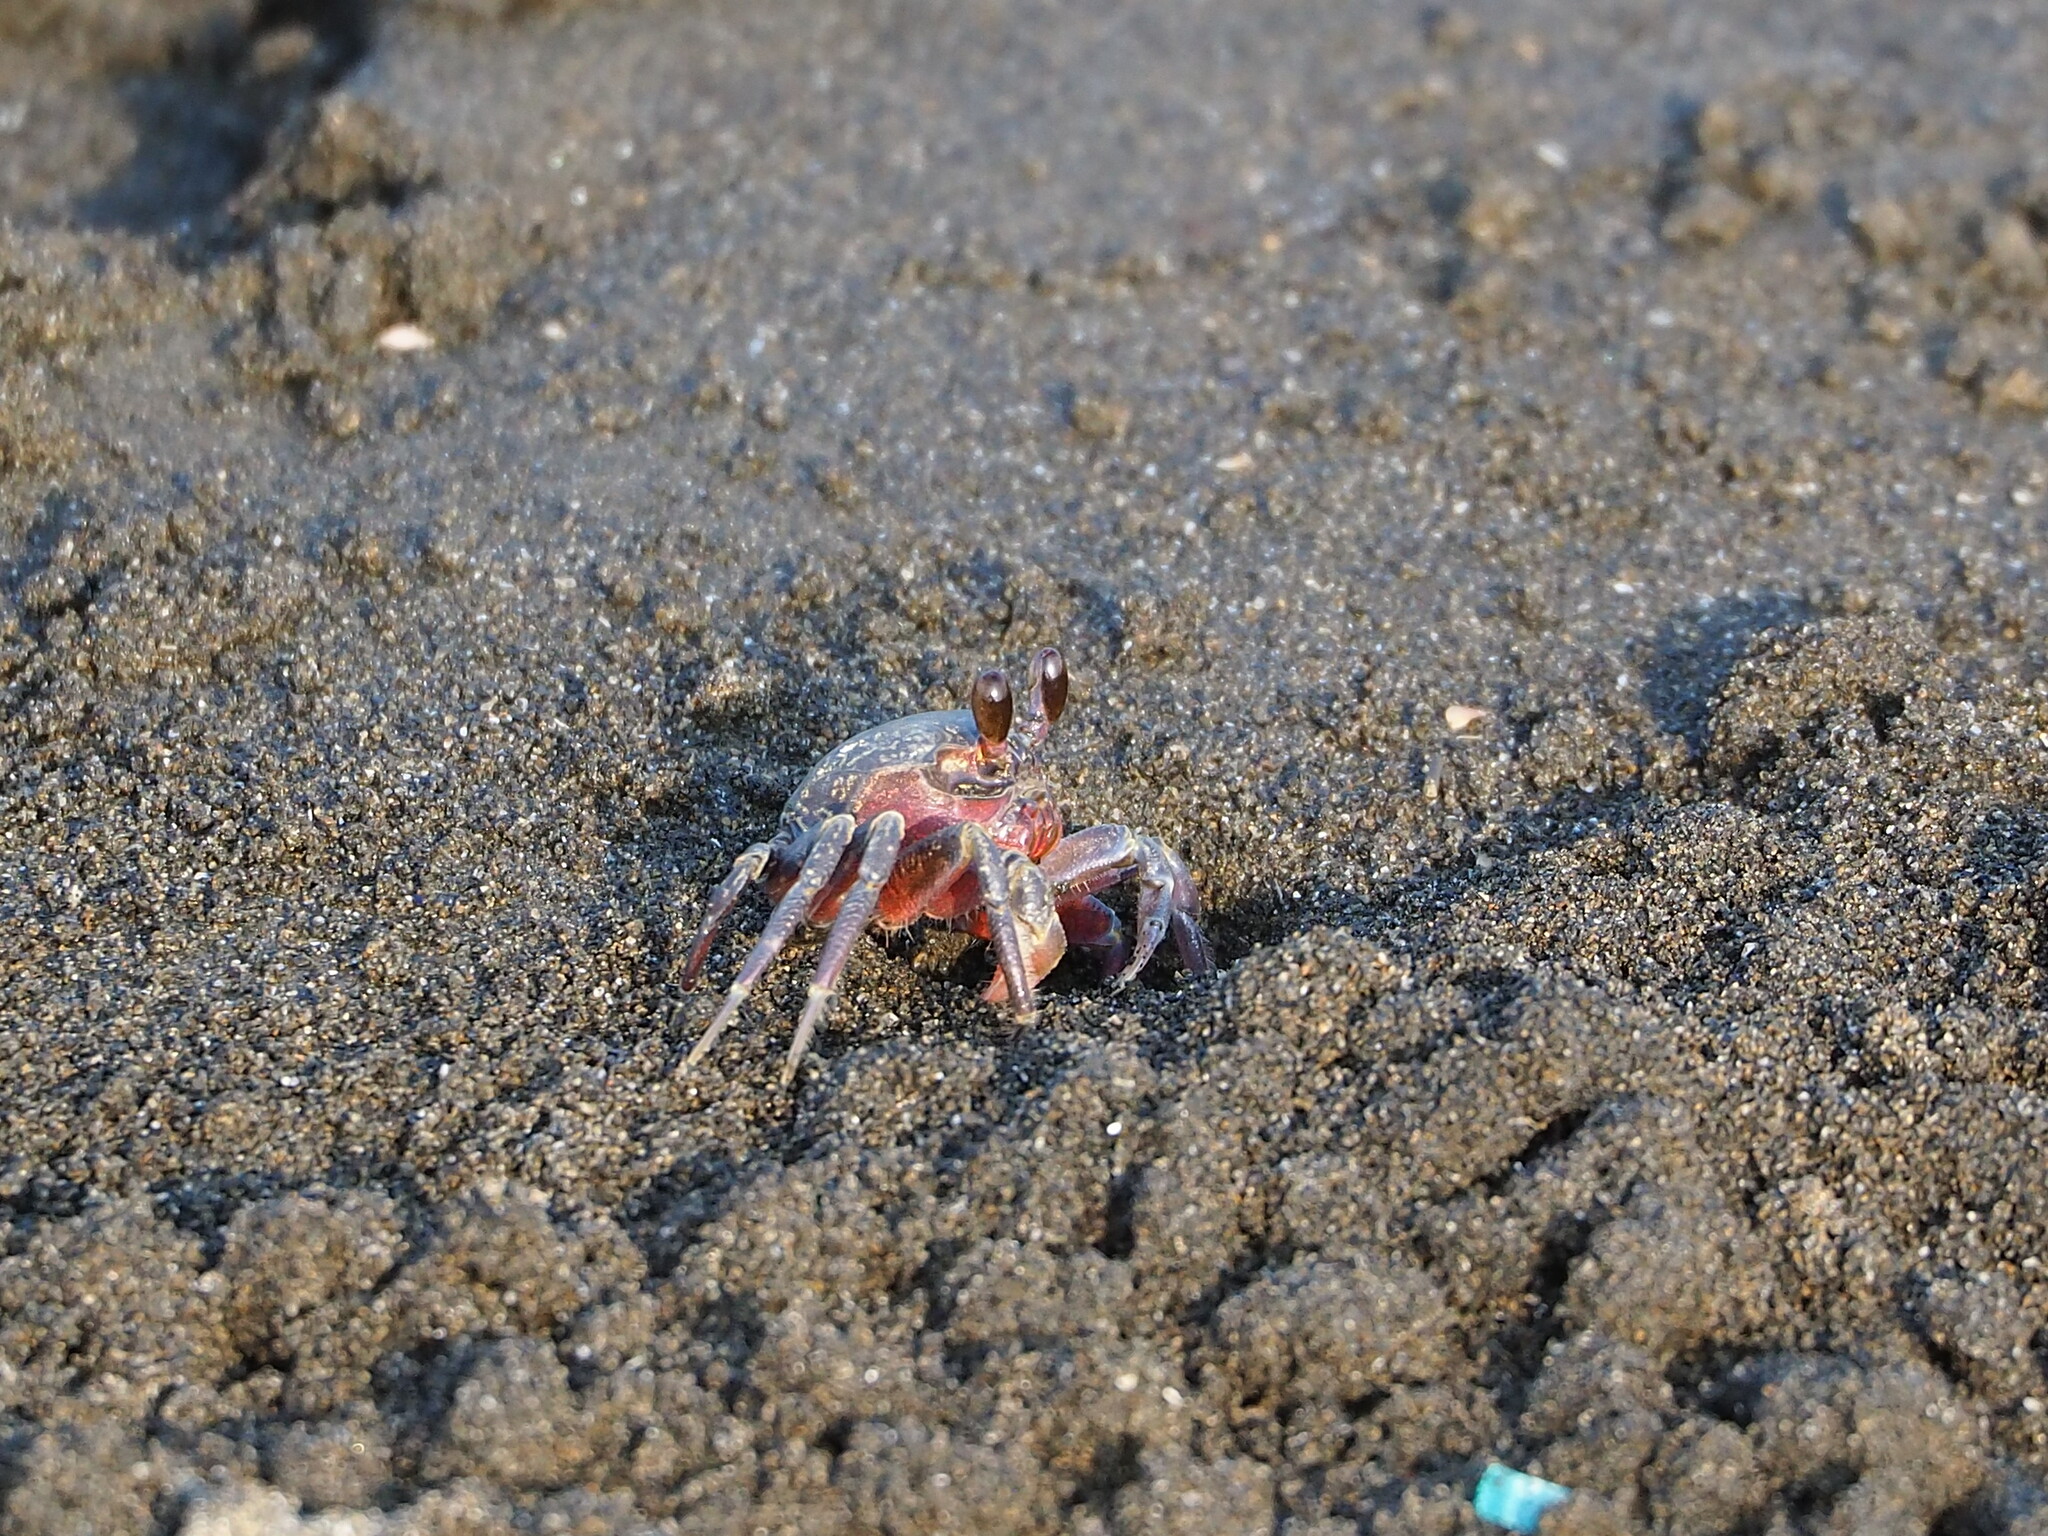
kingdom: Animalia
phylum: Arthropoda
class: Malacostraca
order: Decapoda
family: Ocypodidae
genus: Ocypode
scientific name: Ocypode stimpsoni
